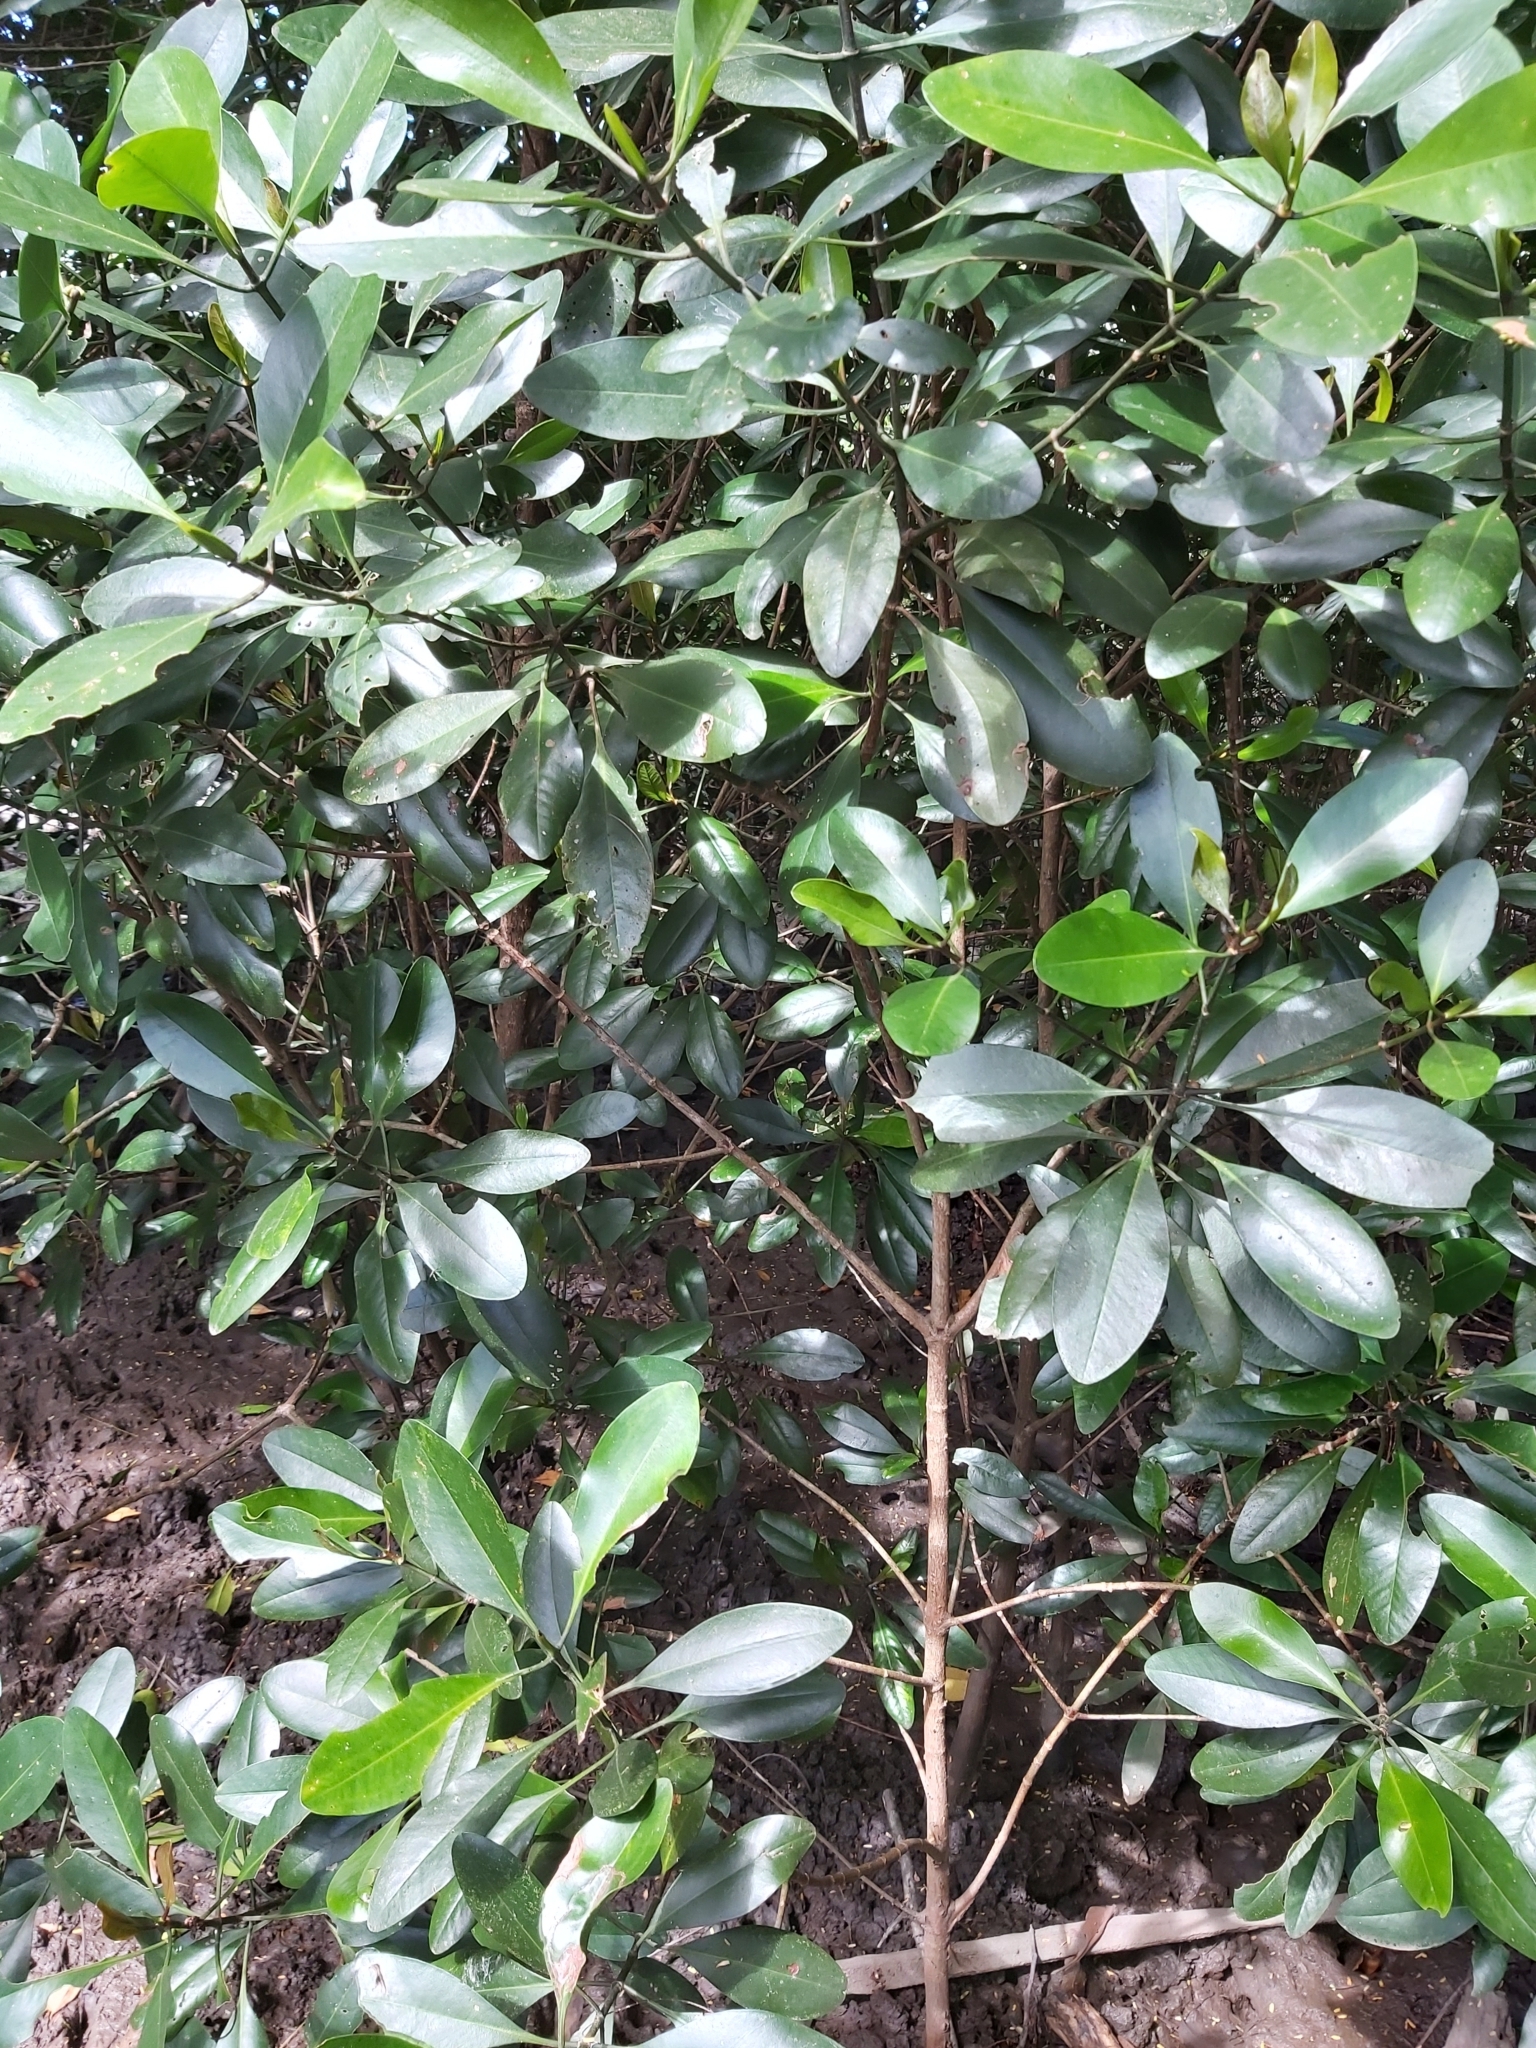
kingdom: Plantae
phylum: Tracheophyta
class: Magnoliopsida
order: Malpighiales
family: Rhizophoraceae
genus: Ceriops
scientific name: Ceriops pseudodecandra
